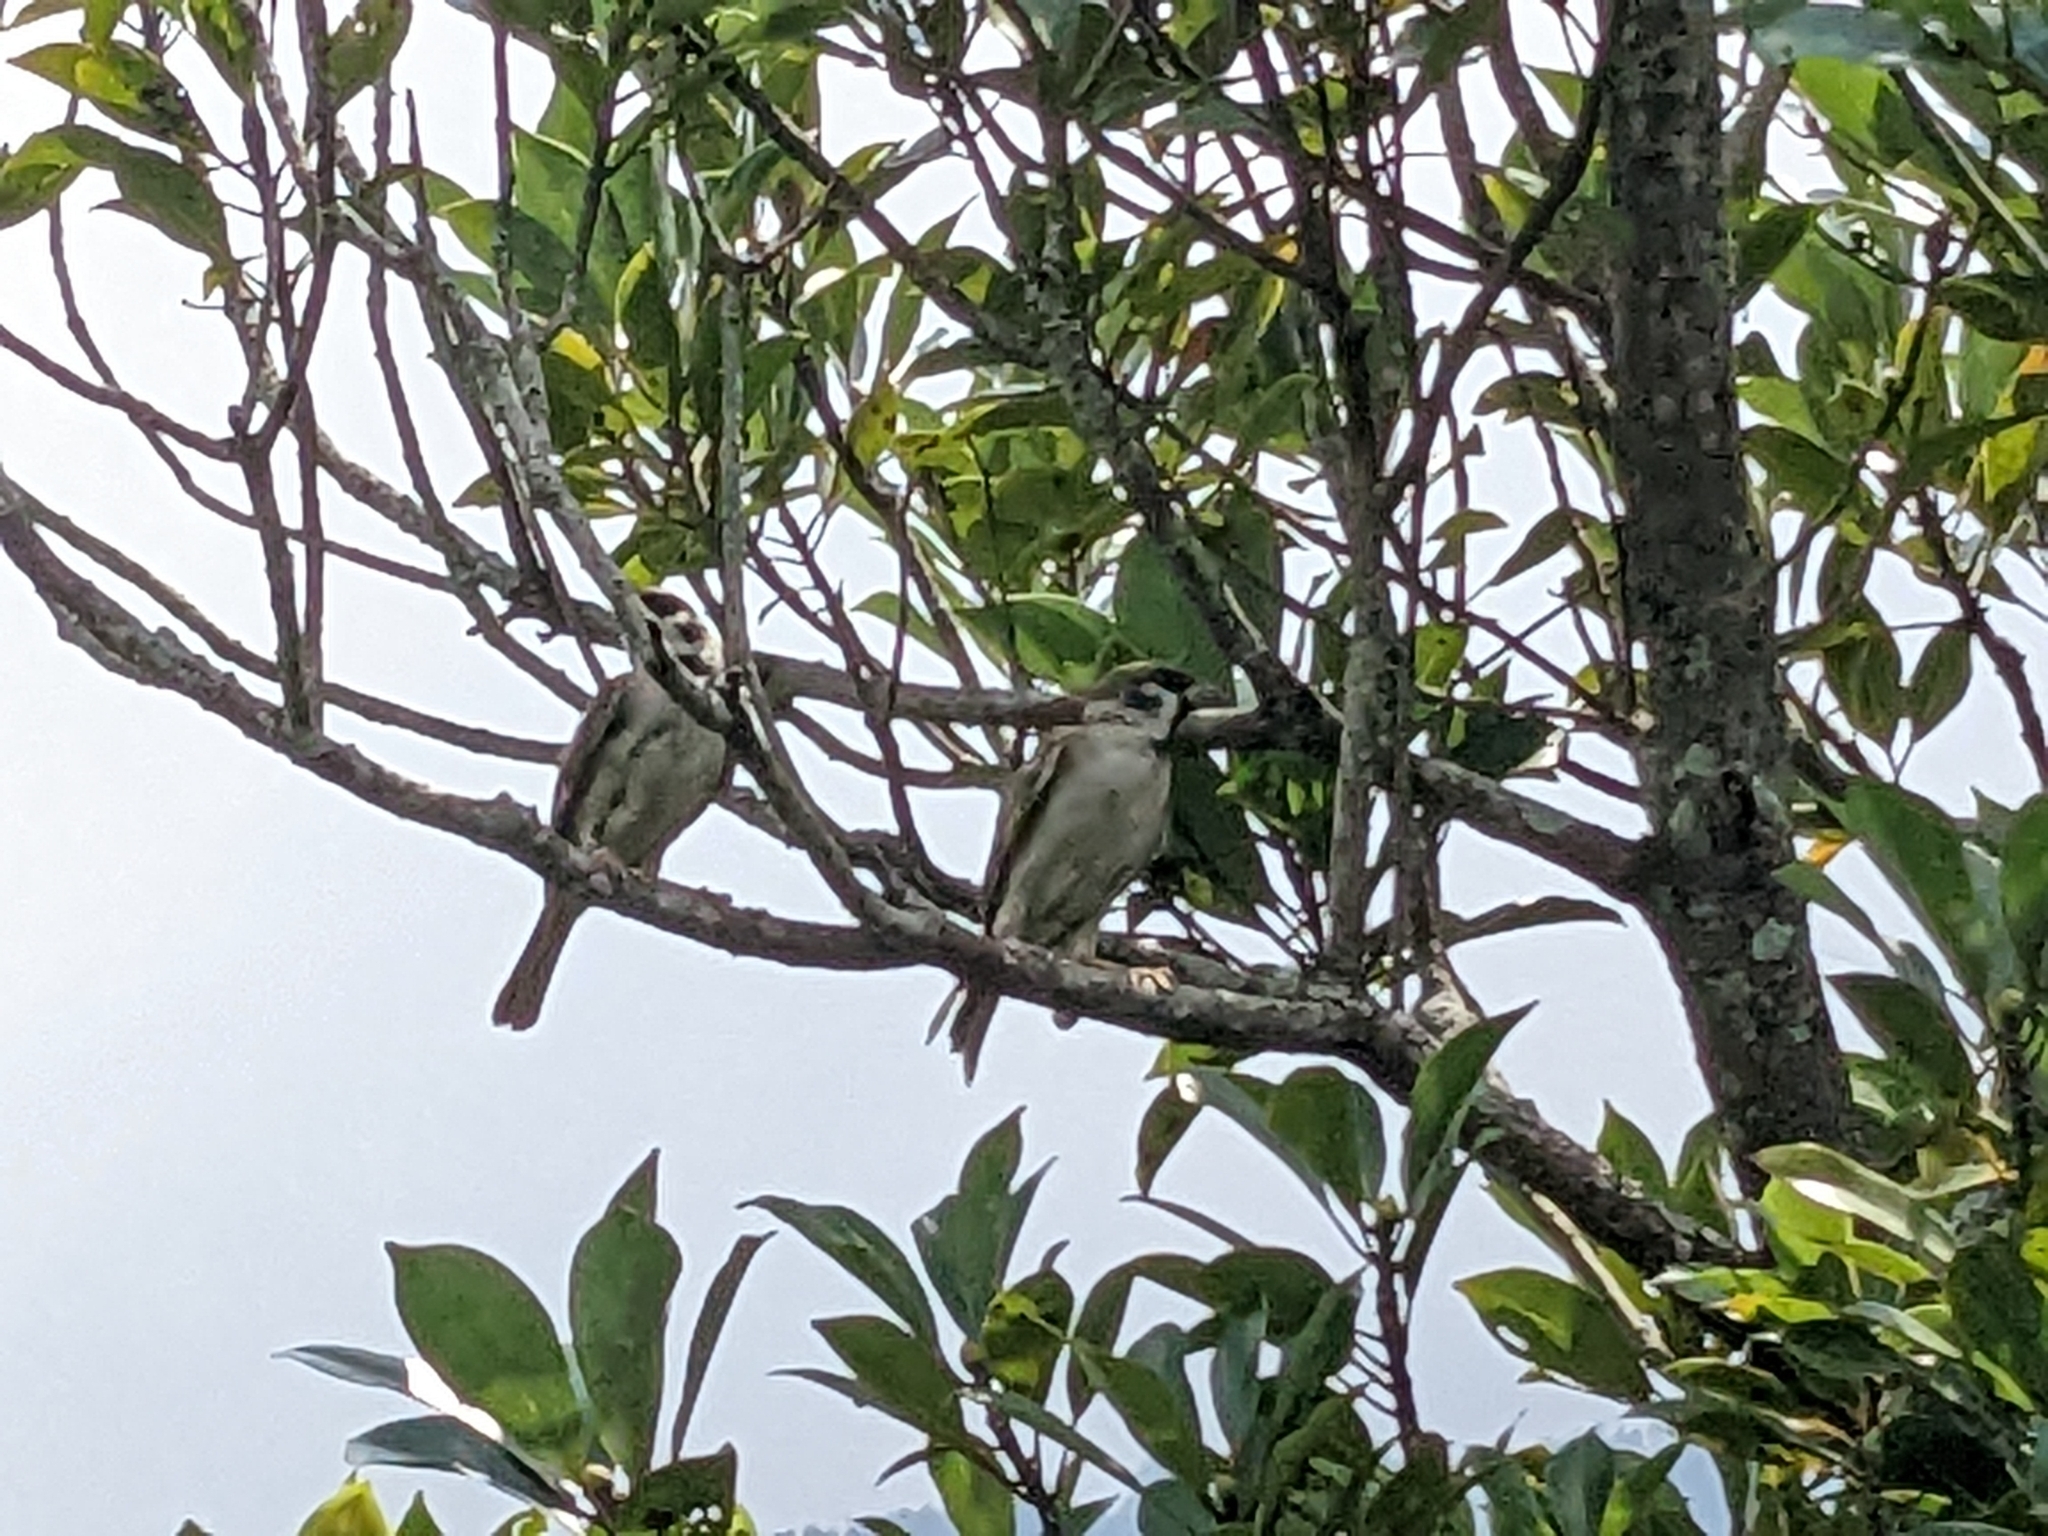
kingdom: Animalia
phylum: Chordata
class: Aves
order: Passeriformes
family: Passeridae
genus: Passer
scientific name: Passer montanus
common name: Eurasian tree sparrow
